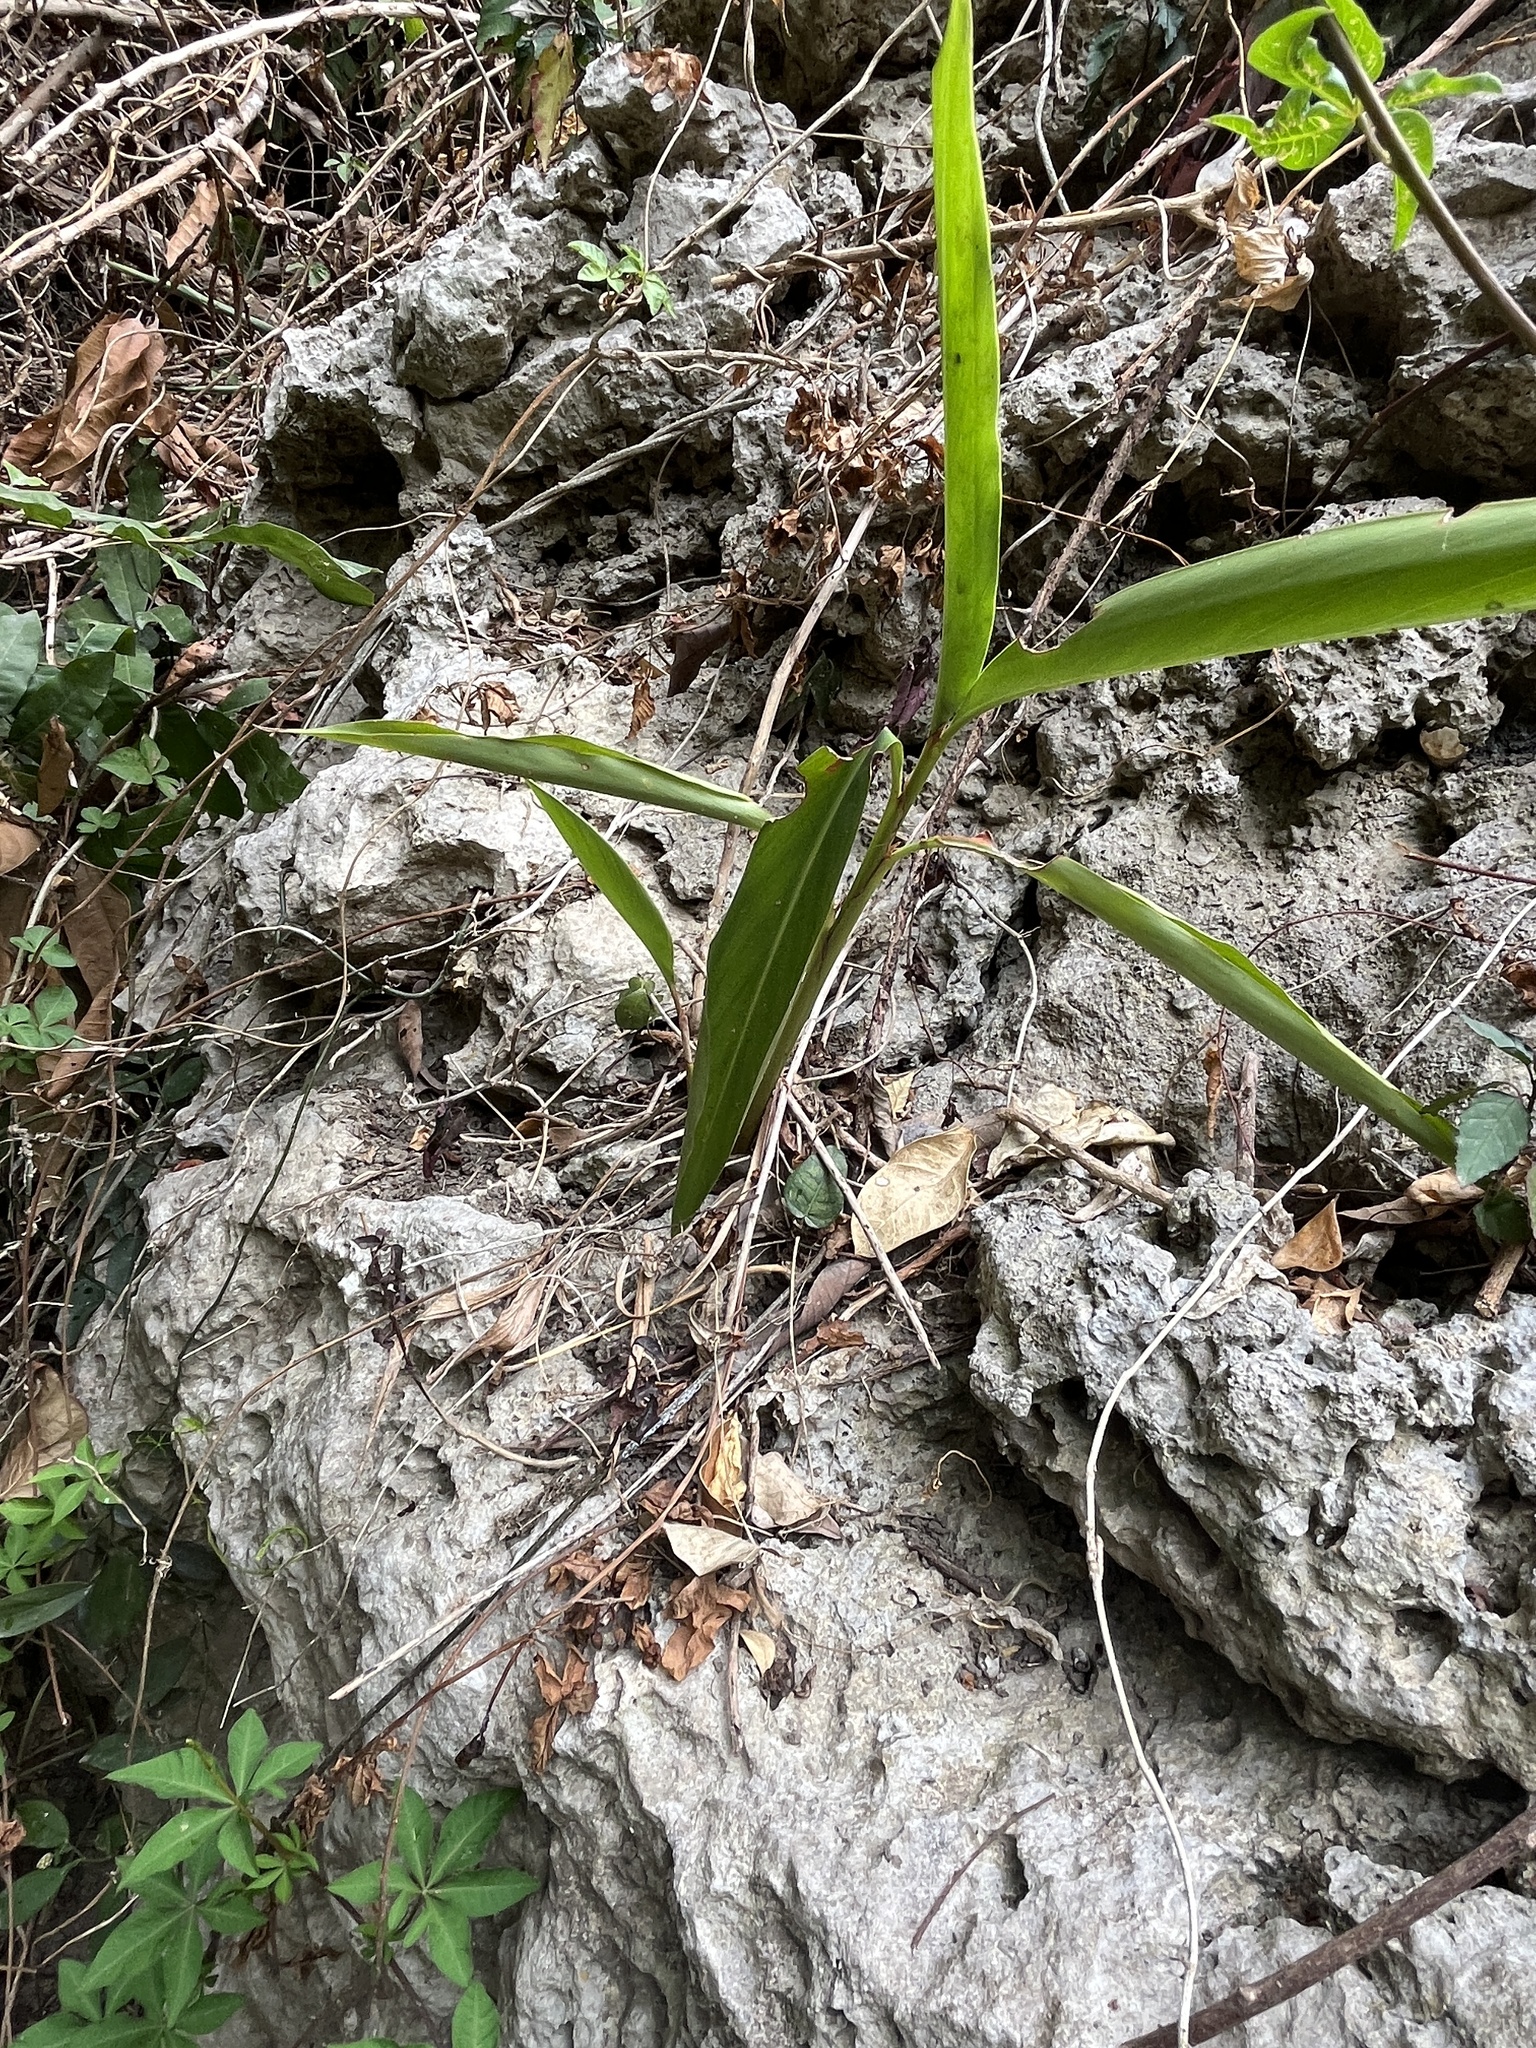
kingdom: Plantae
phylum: Tracheophyta
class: Liliopsida
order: Zingiberales
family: Zingiberaceae
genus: Alpinia
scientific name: Alpinia zerumbet
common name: Shellplant
